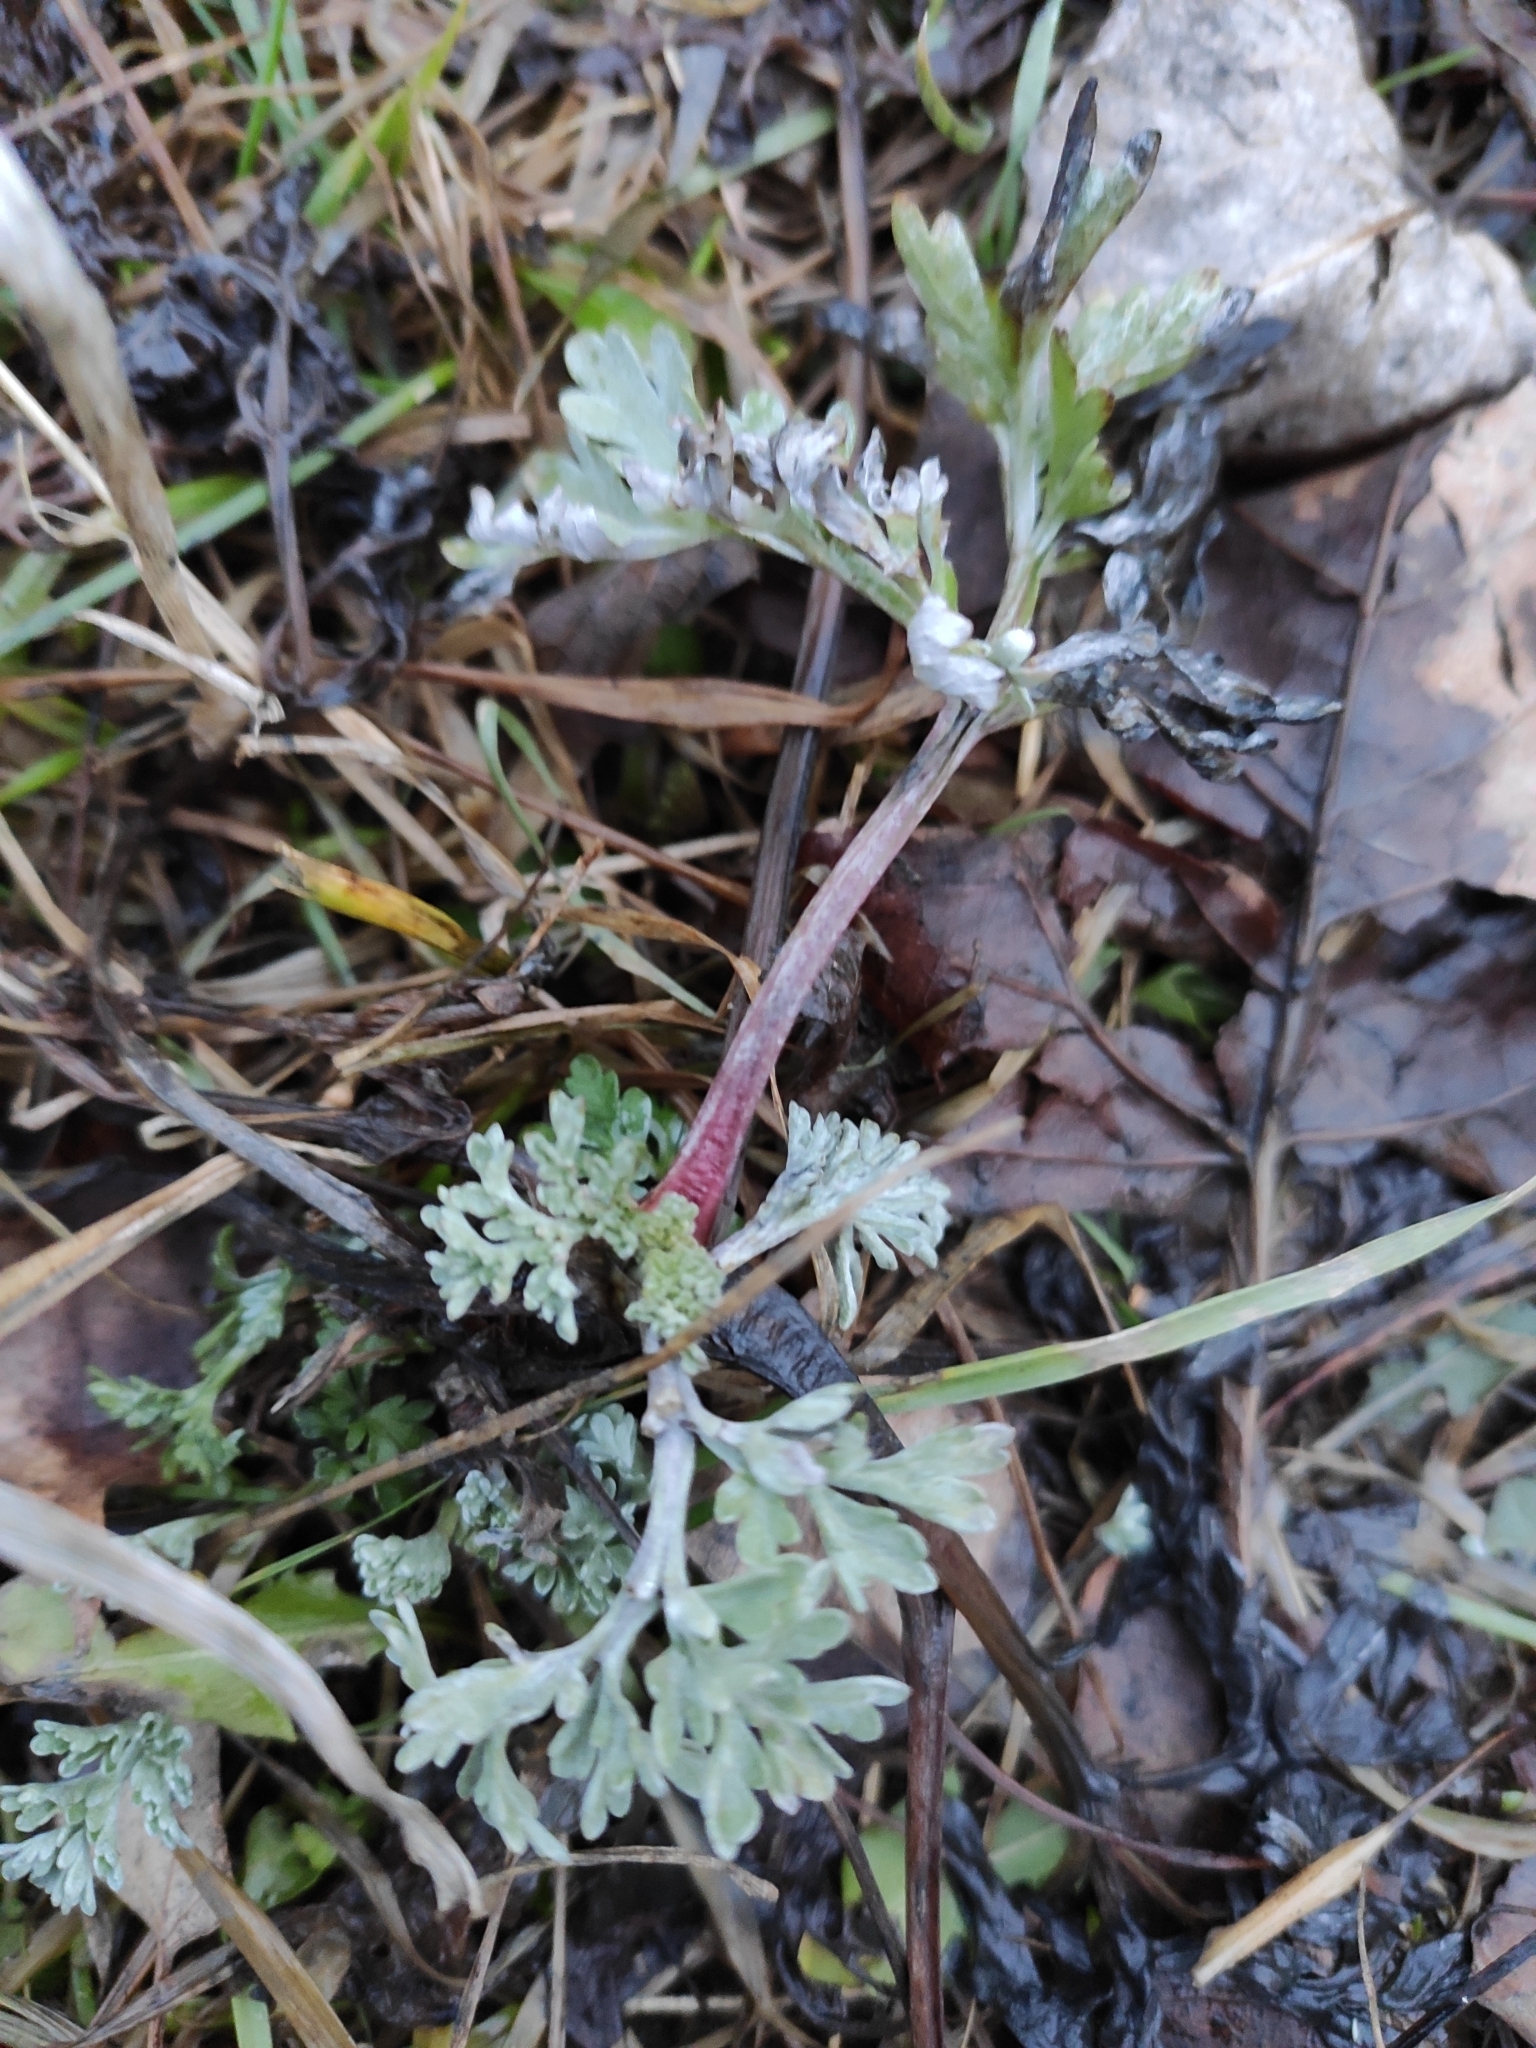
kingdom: Plantae
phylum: Tracheophyta
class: Magnoliopsida
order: Asterales
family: Asteraceae
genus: Artemisia
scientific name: Artemisia absinthium
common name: Wormwood
